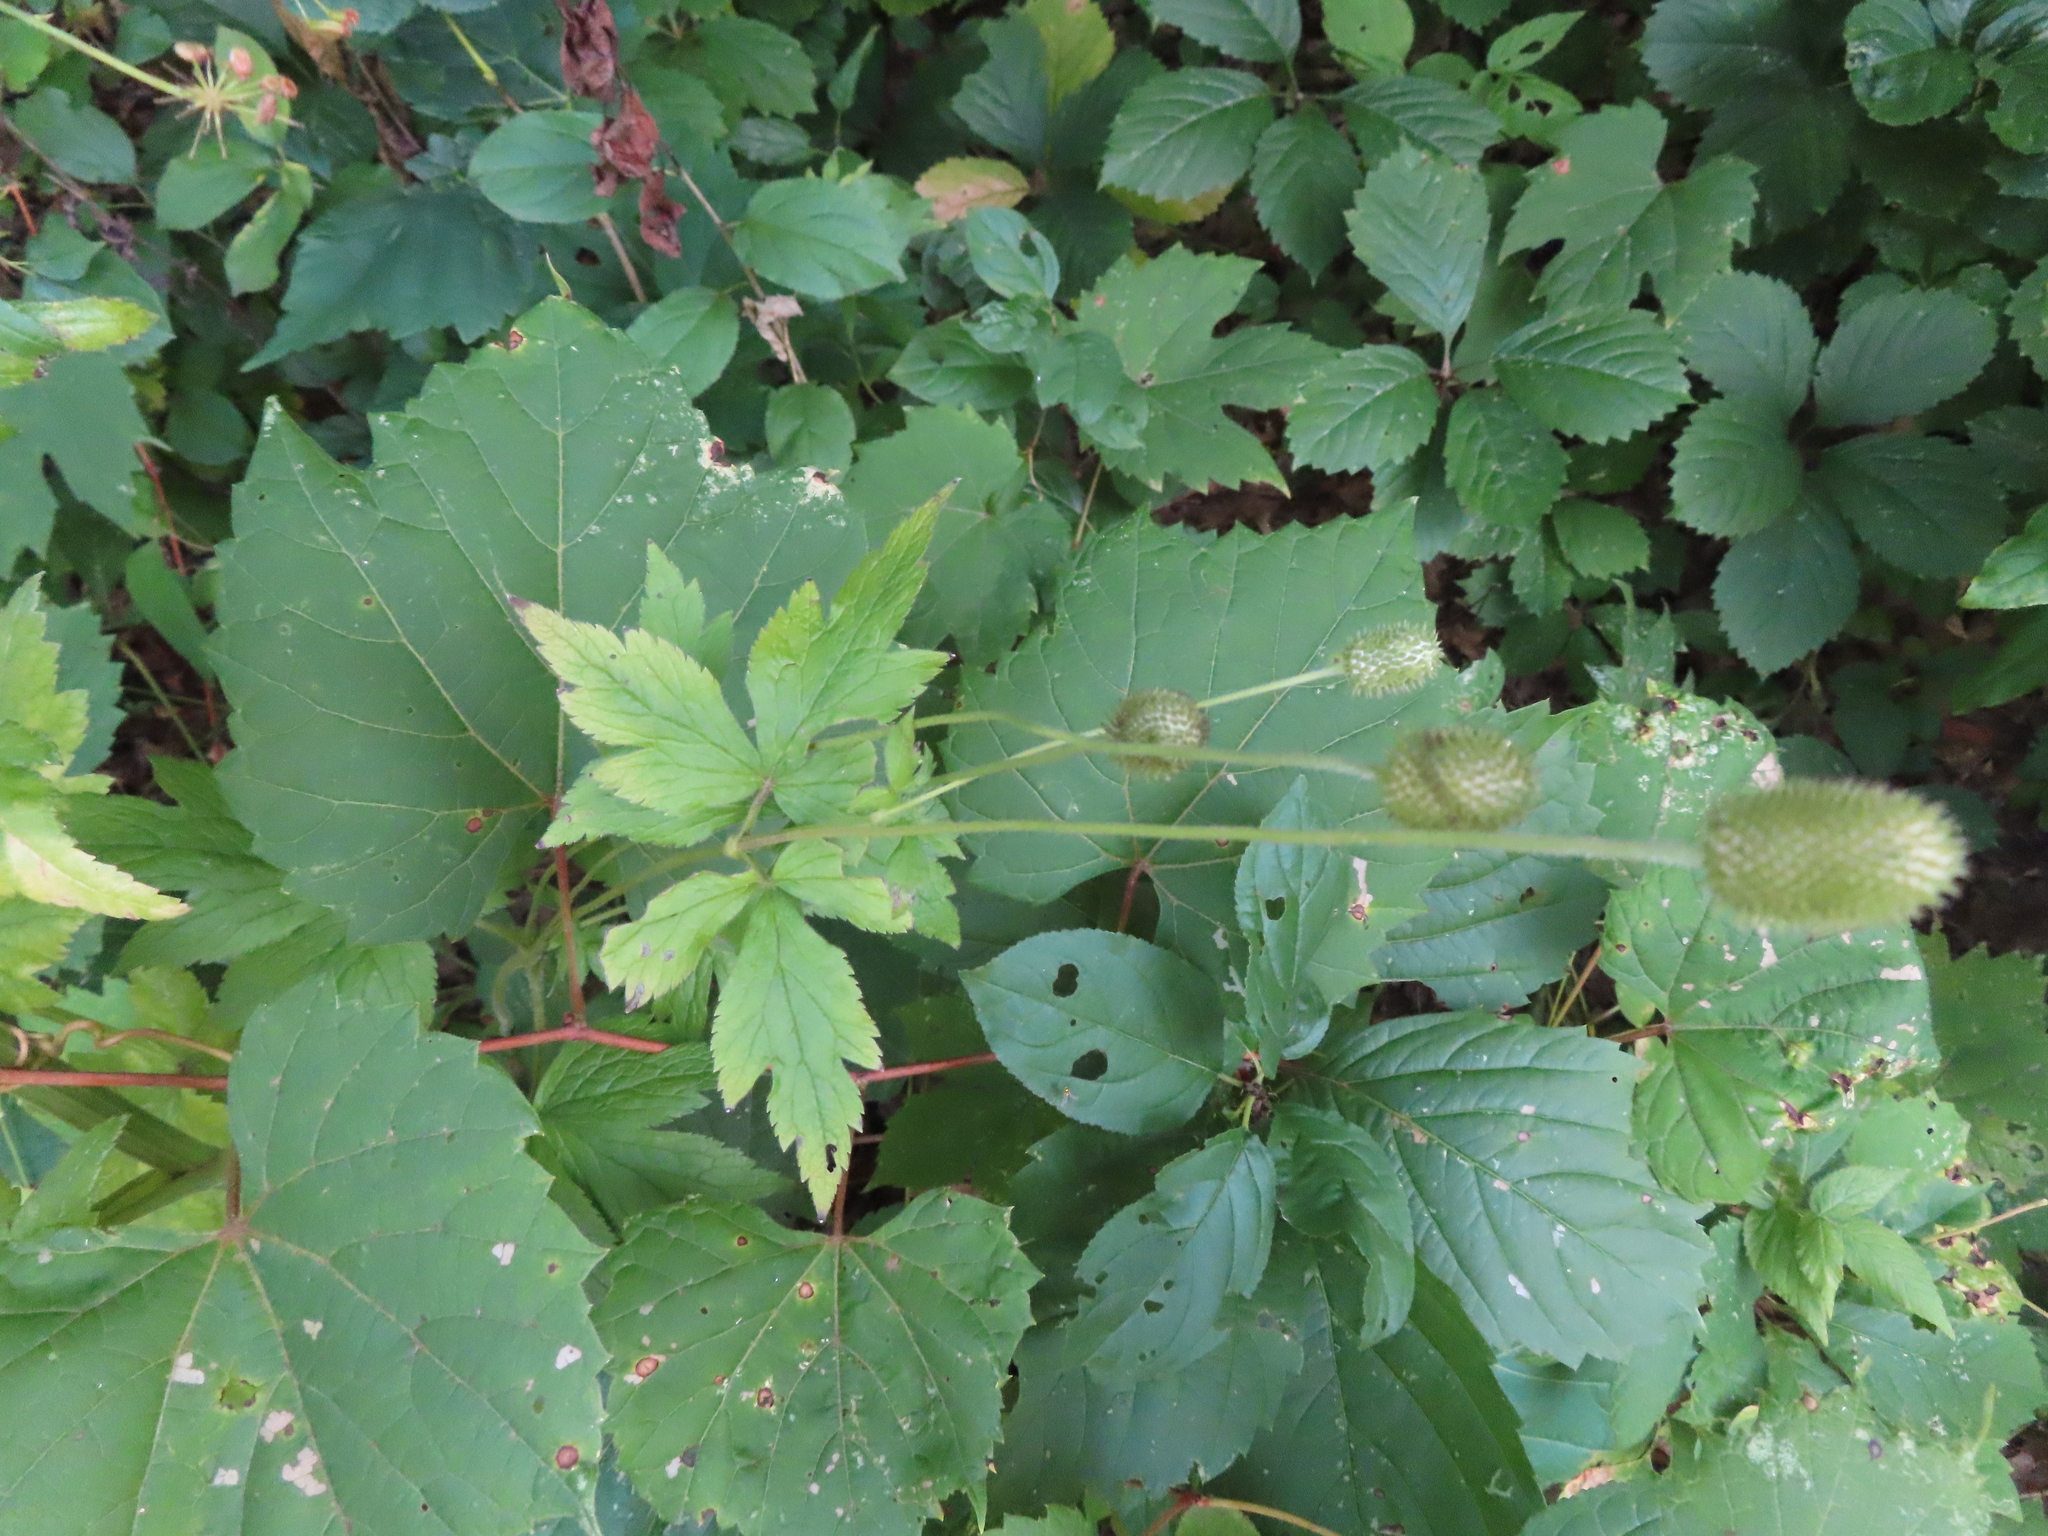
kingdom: Plantae
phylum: Tracheophyta
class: Magnoliopsida
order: Ranunculales
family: Ranunculaceae
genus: Anemone
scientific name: Anemone virginiana
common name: Tall anemone
